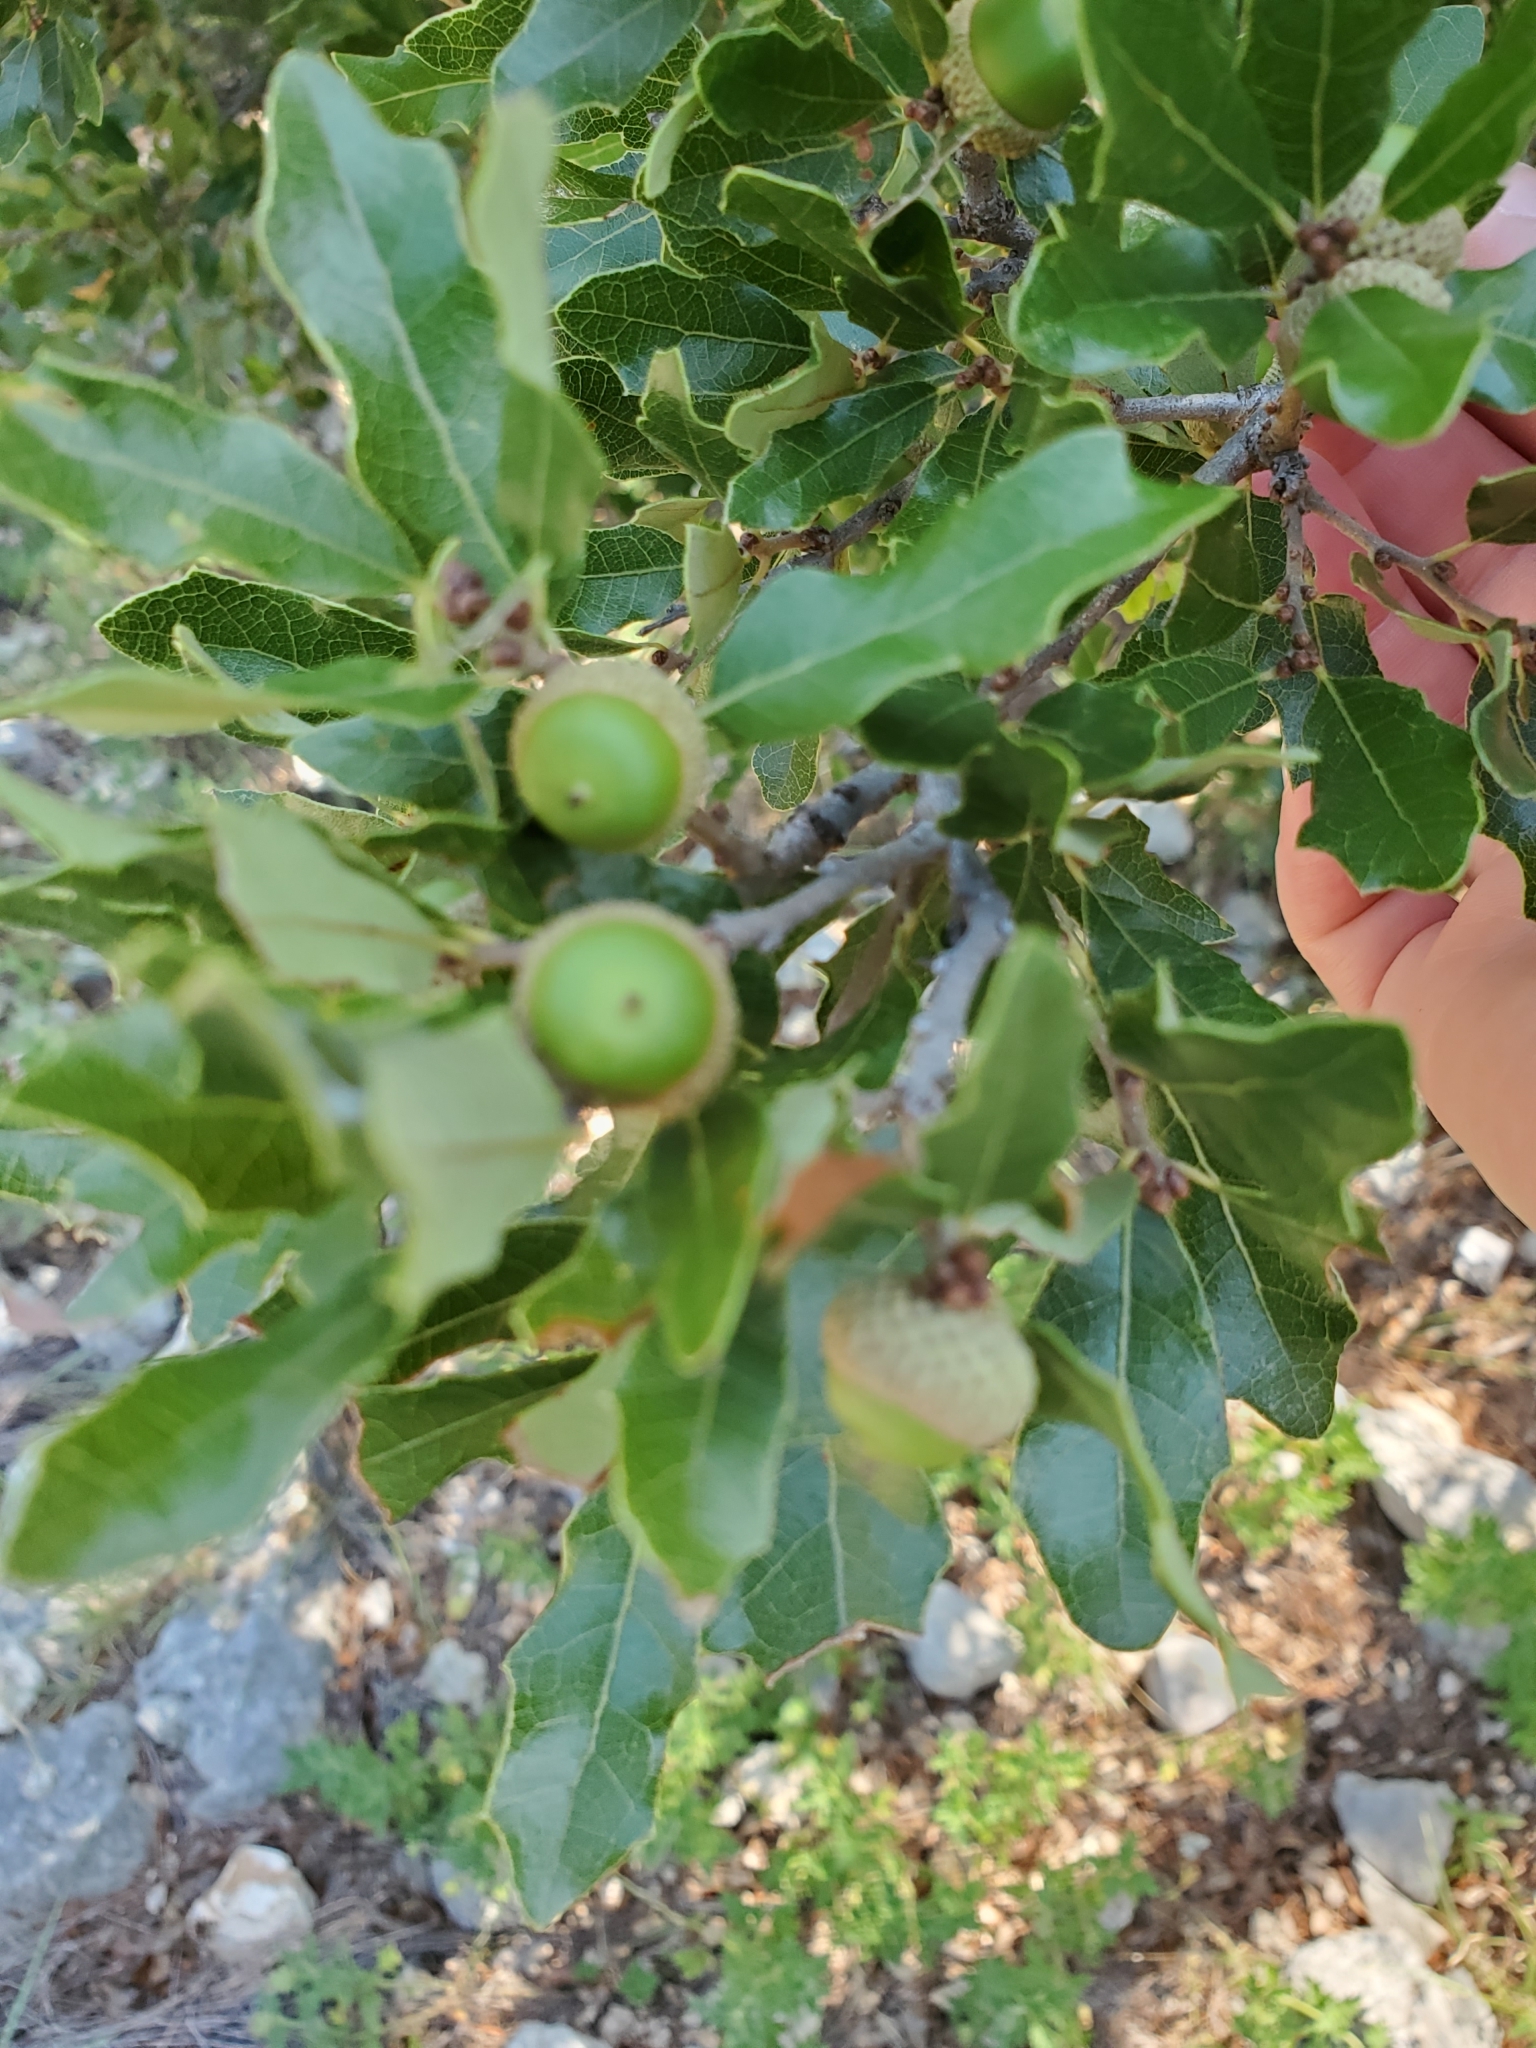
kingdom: Plantae
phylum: Tracheophyta
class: Magnoliopsida
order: Fagales
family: Fagaceae
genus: Quercus
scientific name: Quercus sinuata
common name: Durand oak
